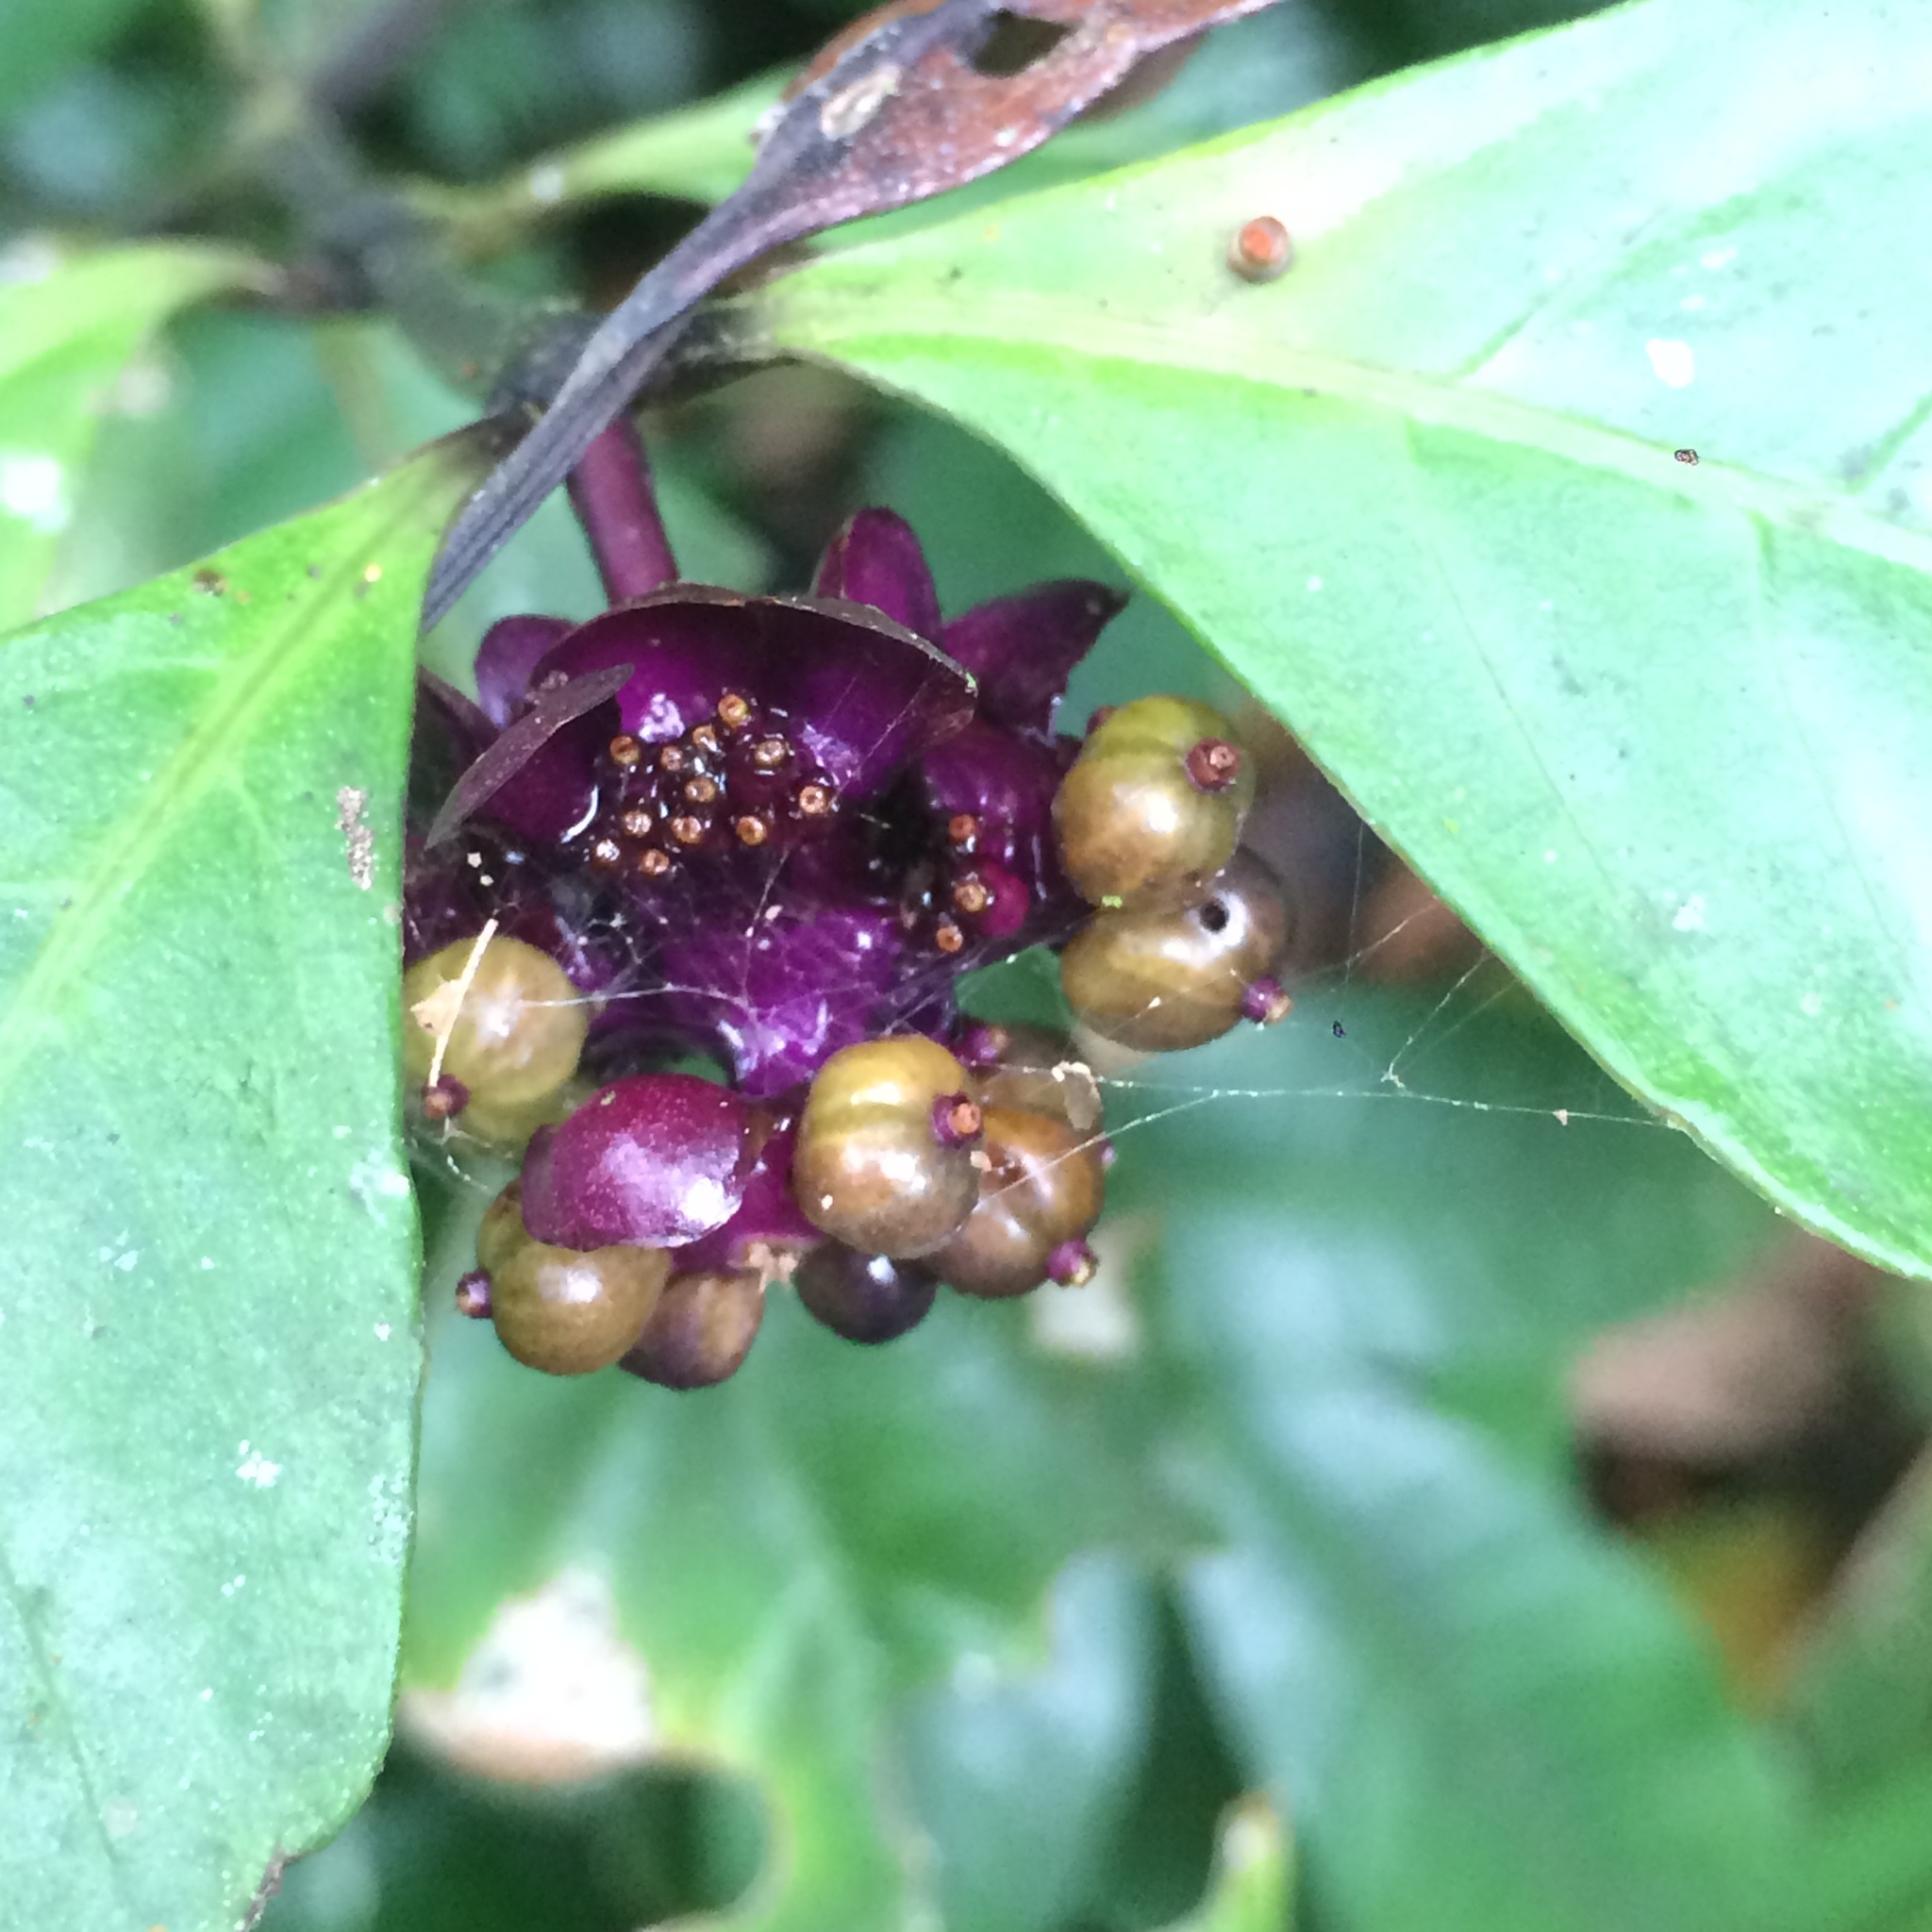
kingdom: Plantae
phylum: Tracheophyta
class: Magnoliopsida
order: Gentianales
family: Rubiaceae
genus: Palicourea
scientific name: Palicourea dichotoma
